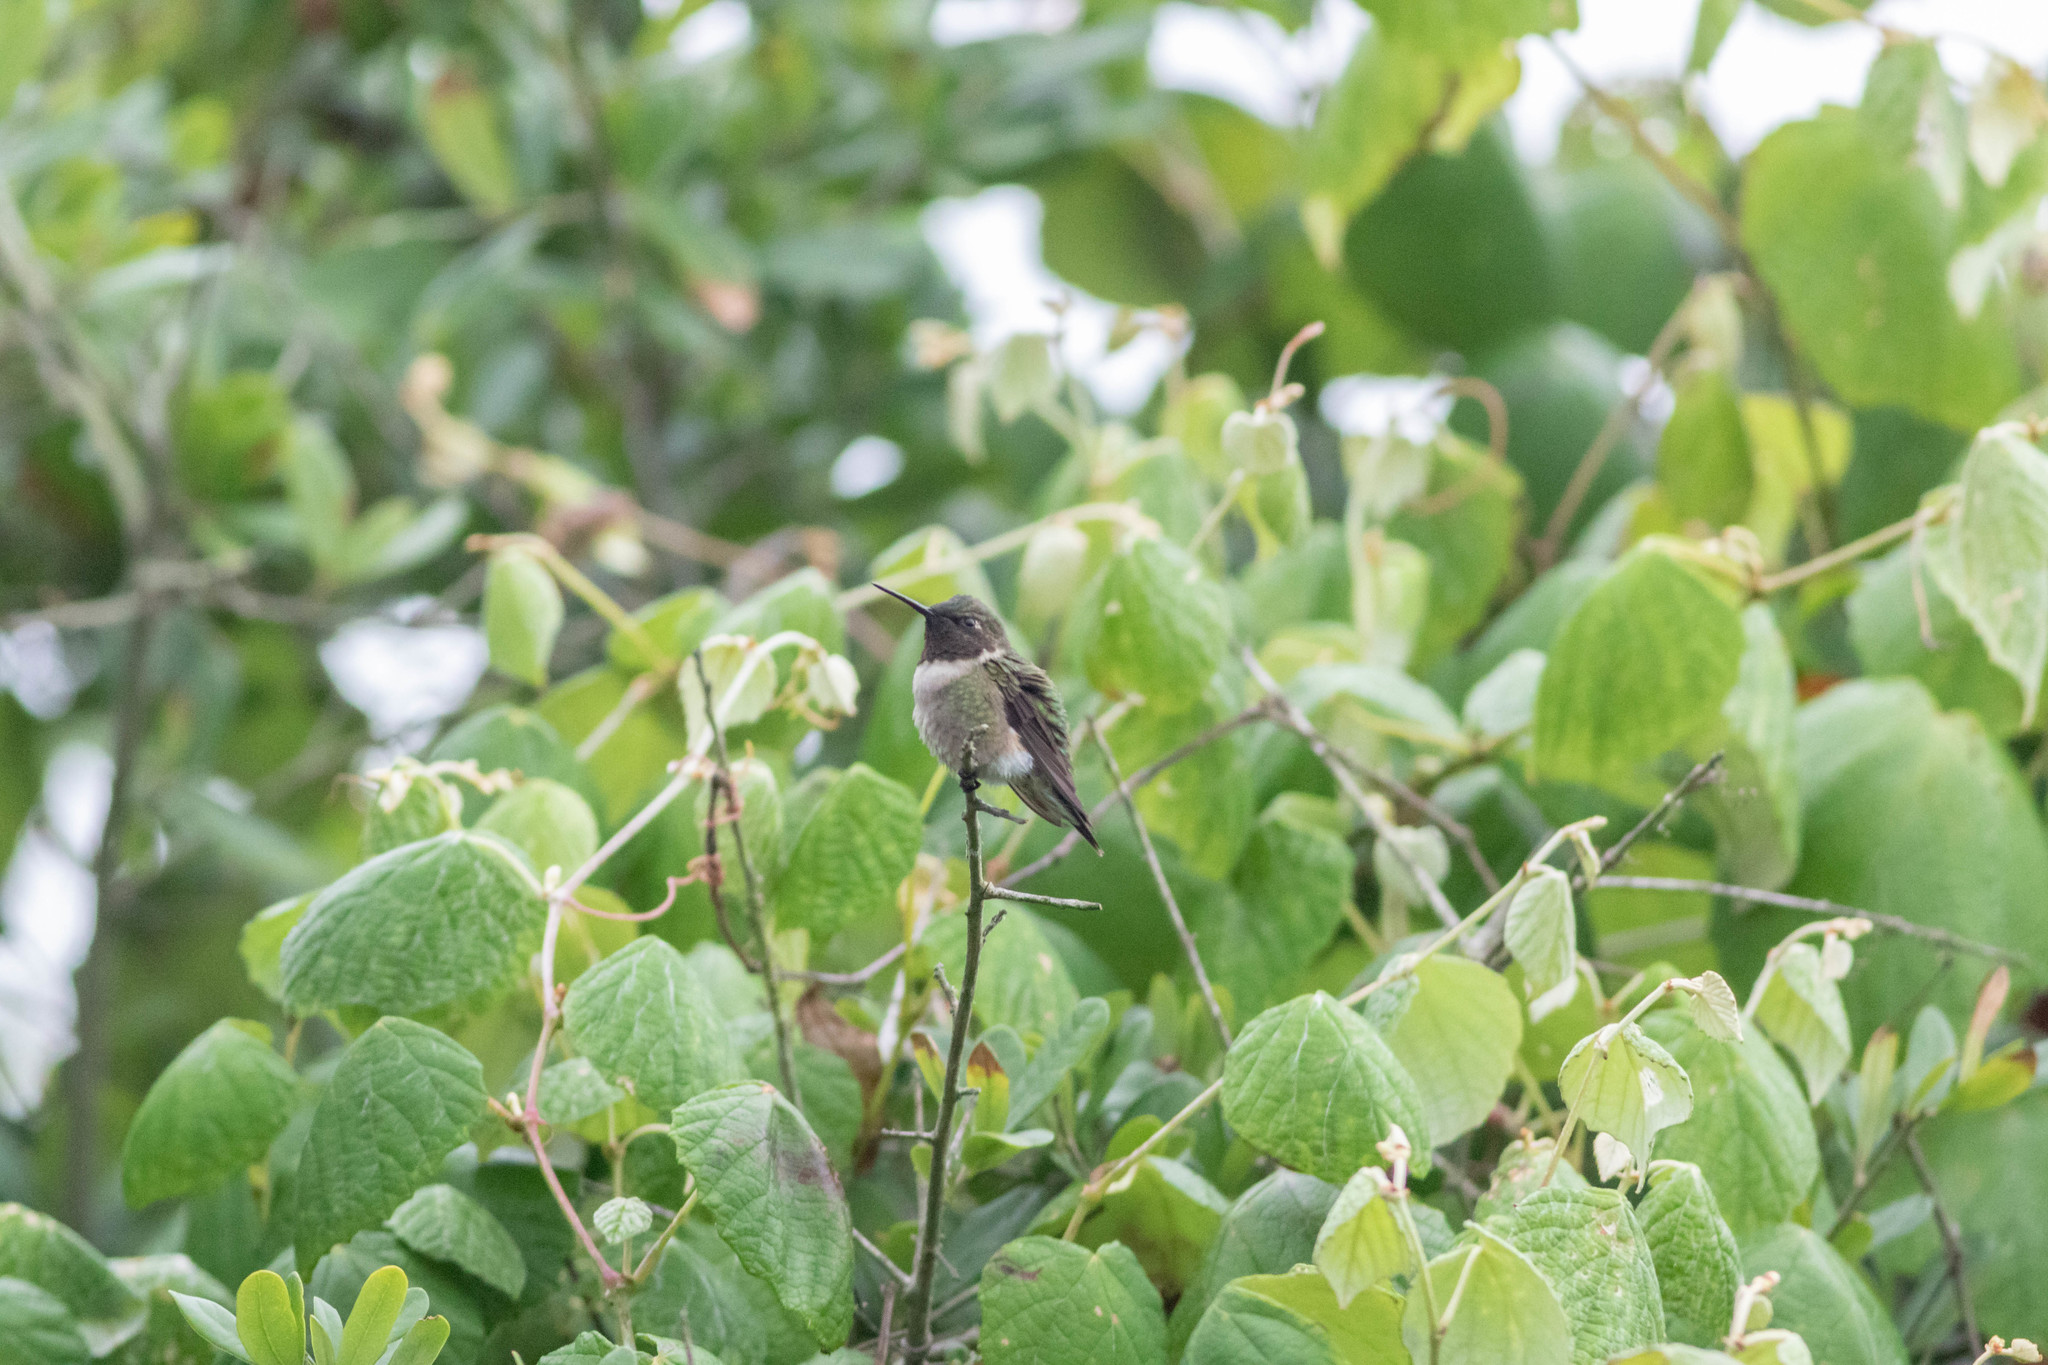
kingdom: Animalia
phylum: Chordata
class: Aves
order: Apodiformes
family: Trochilidae
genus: Archilochus
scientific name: Archilochus colubris
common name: Ruby-throated hummingbird
